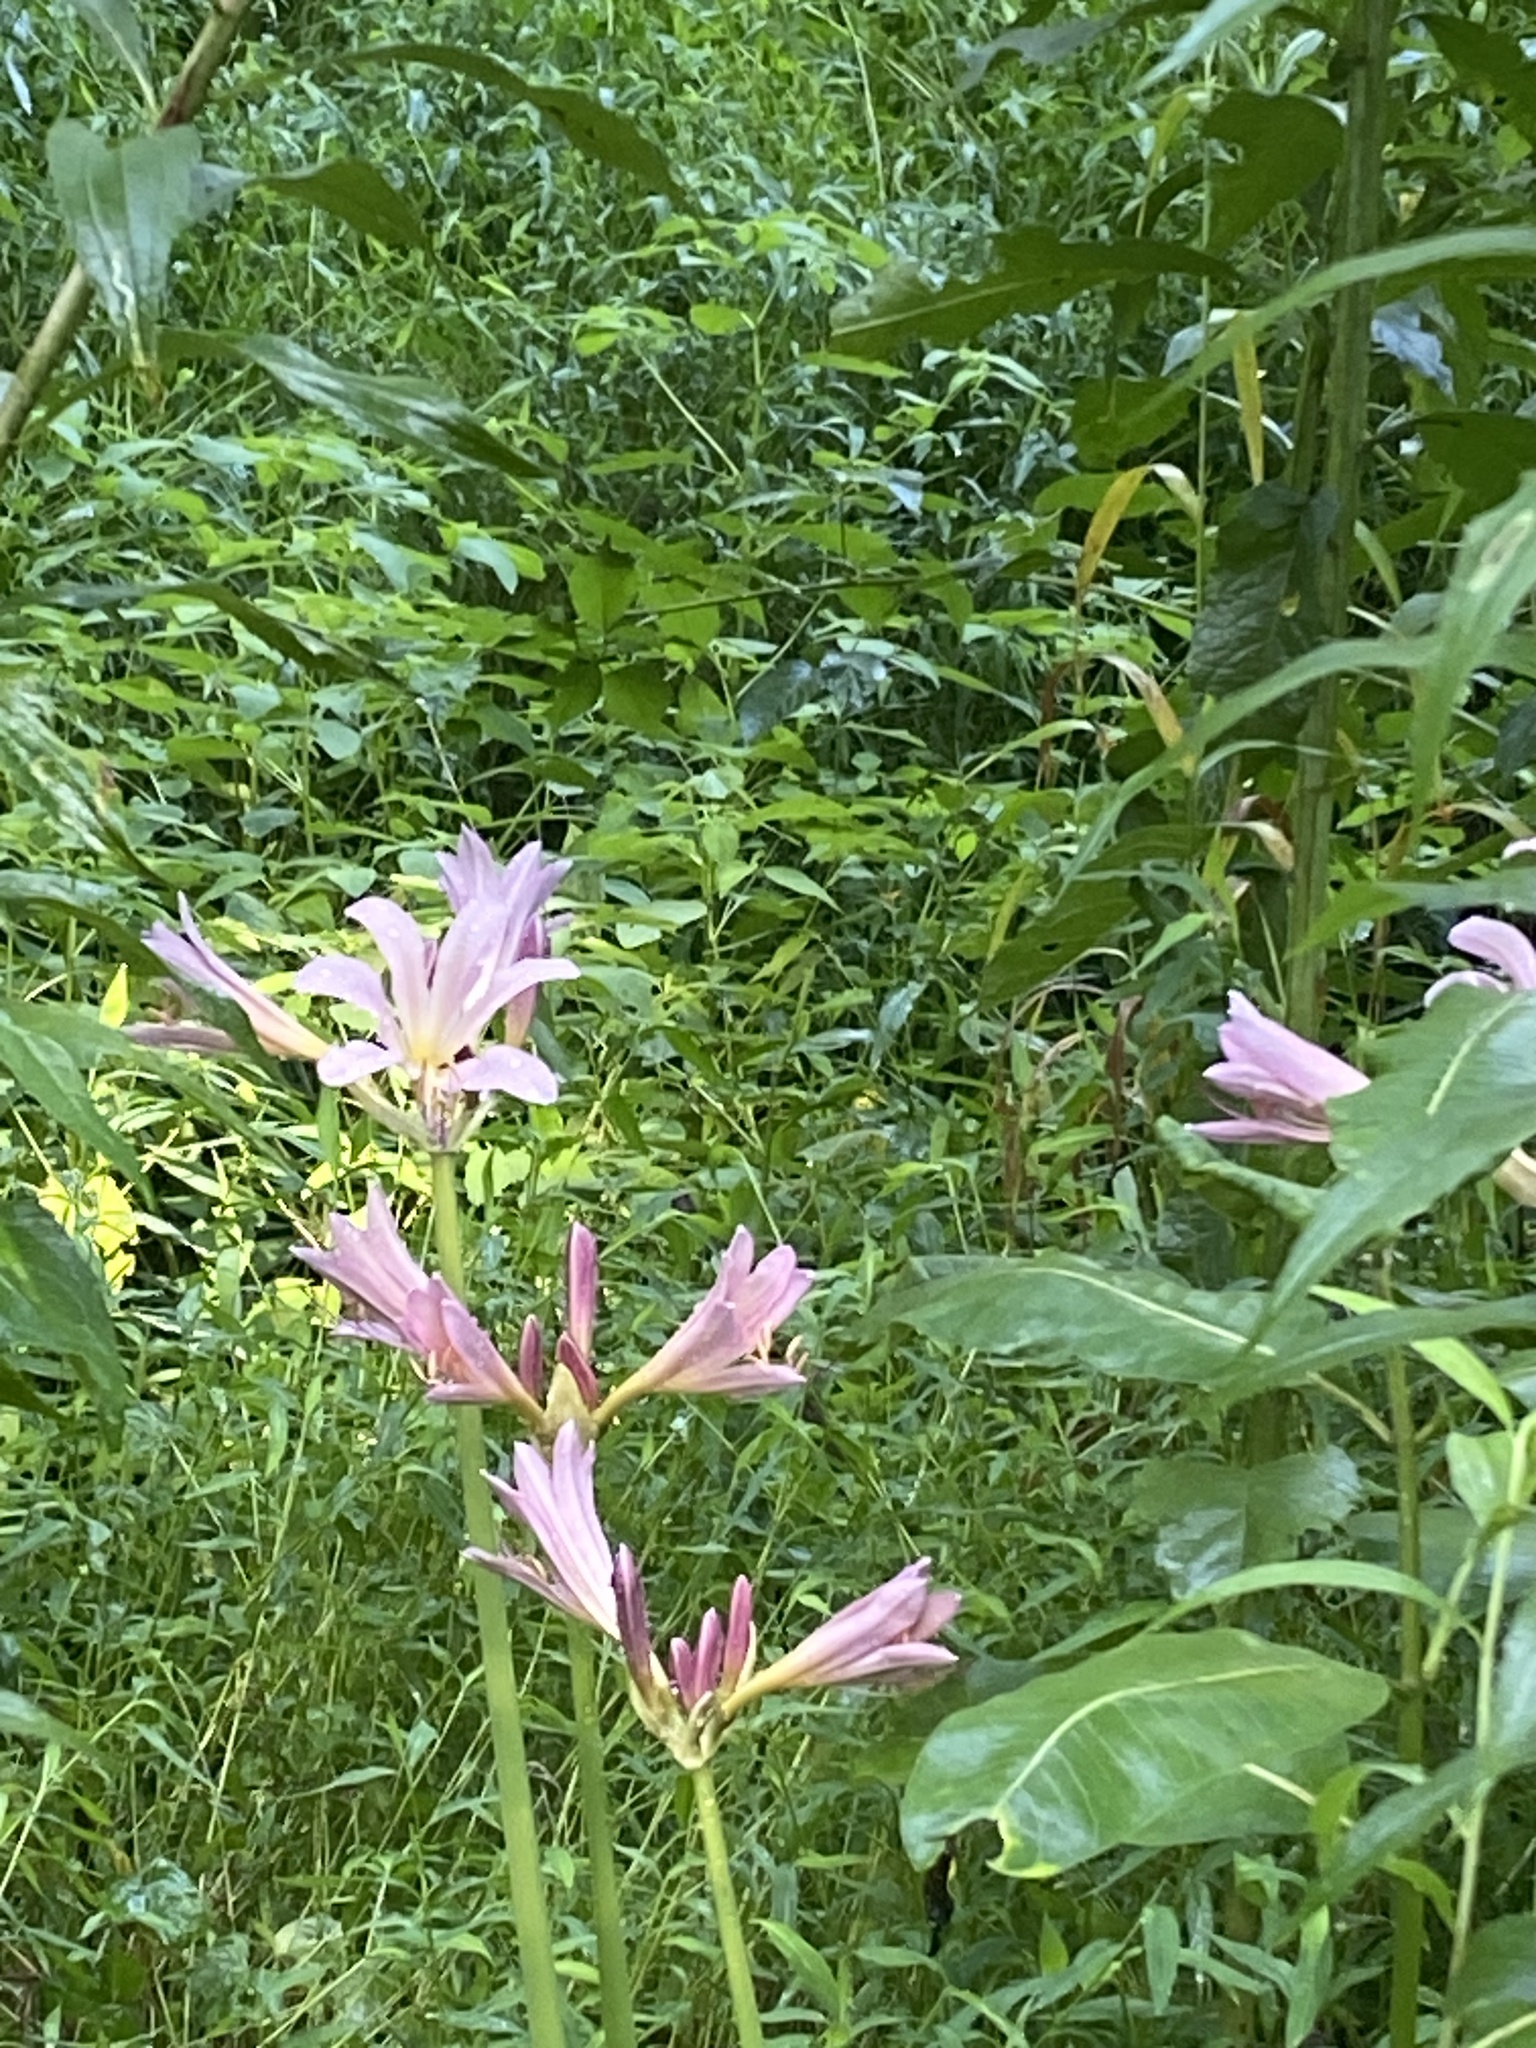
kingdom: Plantae
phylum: Tracheophyta
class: Liliopsida
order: Asparagales
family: Amaryllidaceae
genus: Lycoris
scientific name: Lycoris squamigera
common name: Magic-lily
